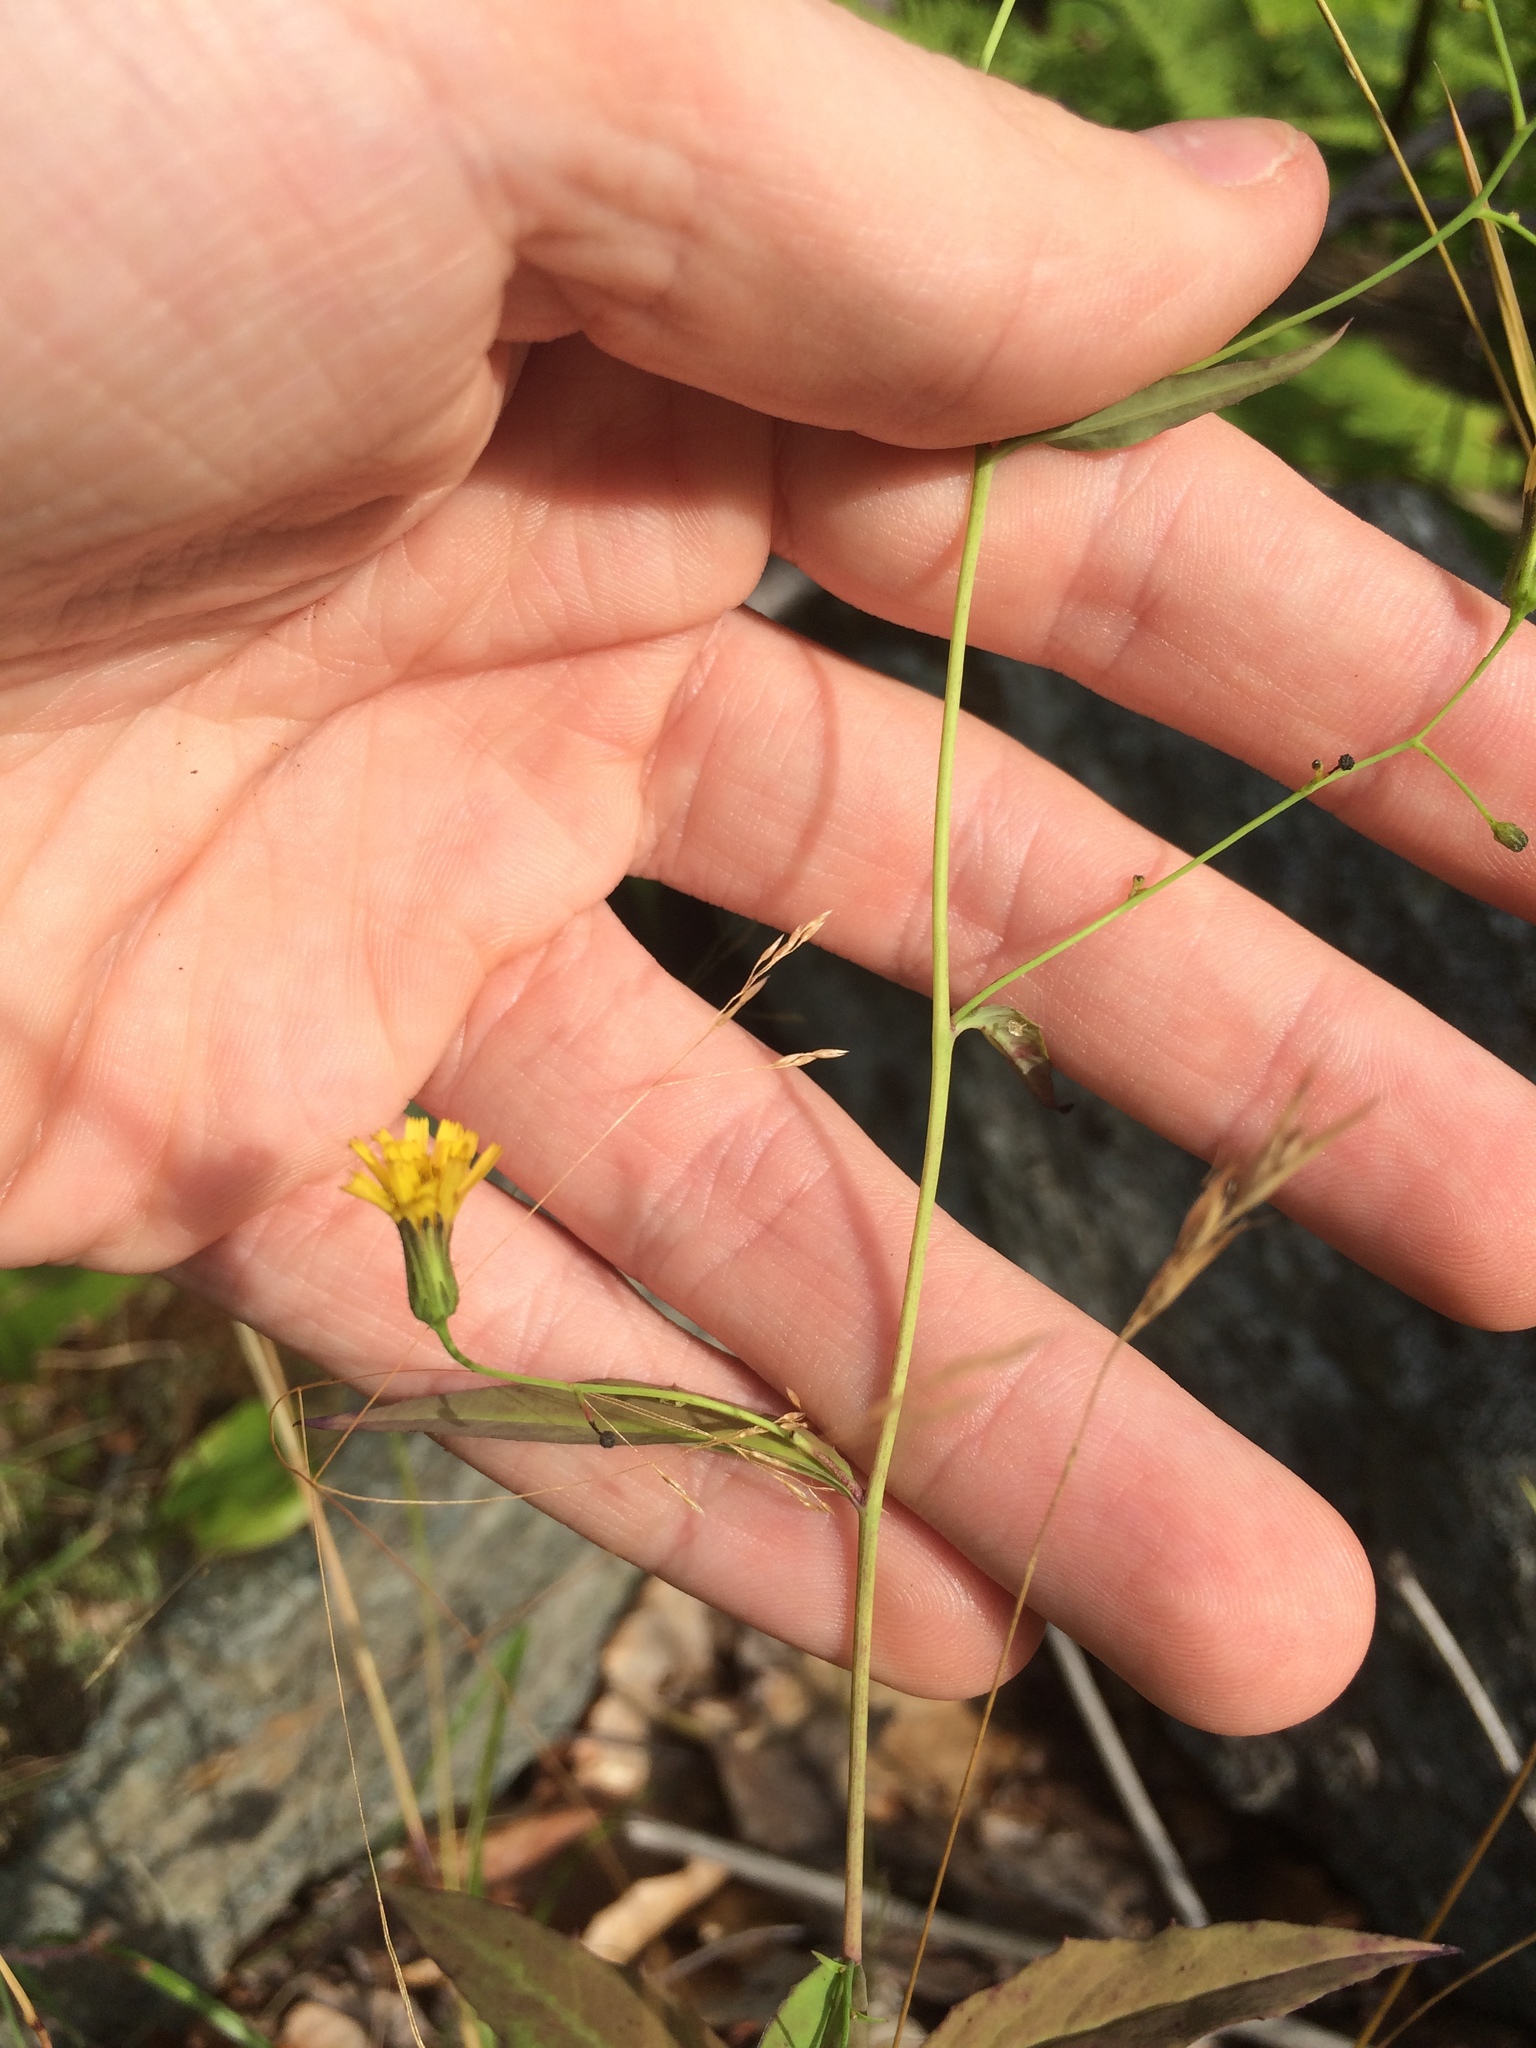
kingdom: Plantae
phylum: Tracheophyta
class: Magnoliopsida
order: Asterales
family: Asteraceae
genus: Hieracium
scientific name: Hieracium paniculatum
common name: Allegheny hawkweed
